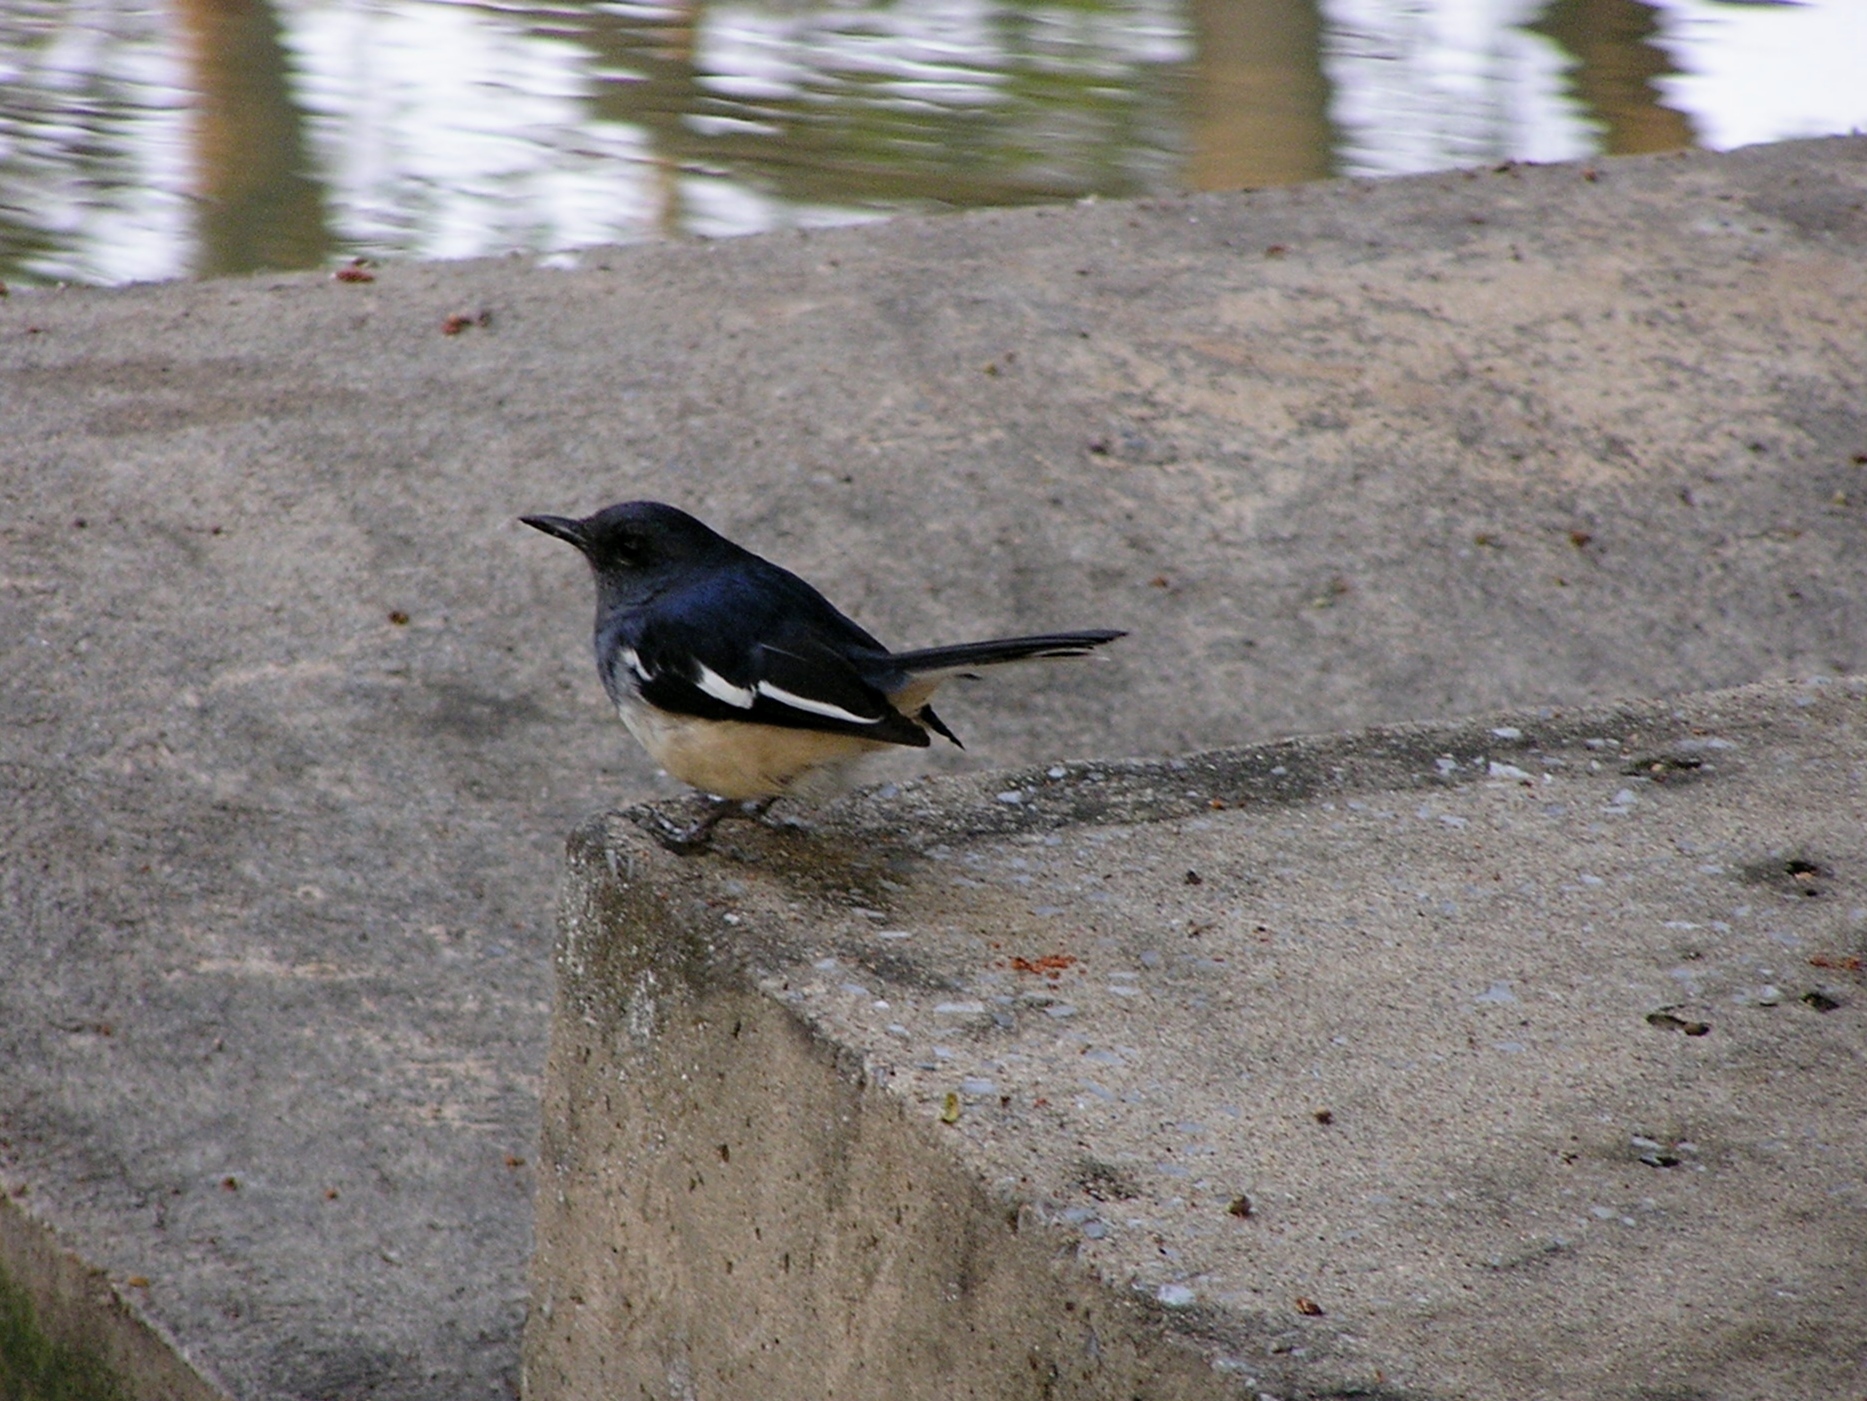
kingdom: Animalia
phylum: Chordata
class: Aves
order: Passeriformes
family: Muscicapidae
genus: Copsychus
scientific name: Copsychus saularis
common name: Oriental magpie-robin
